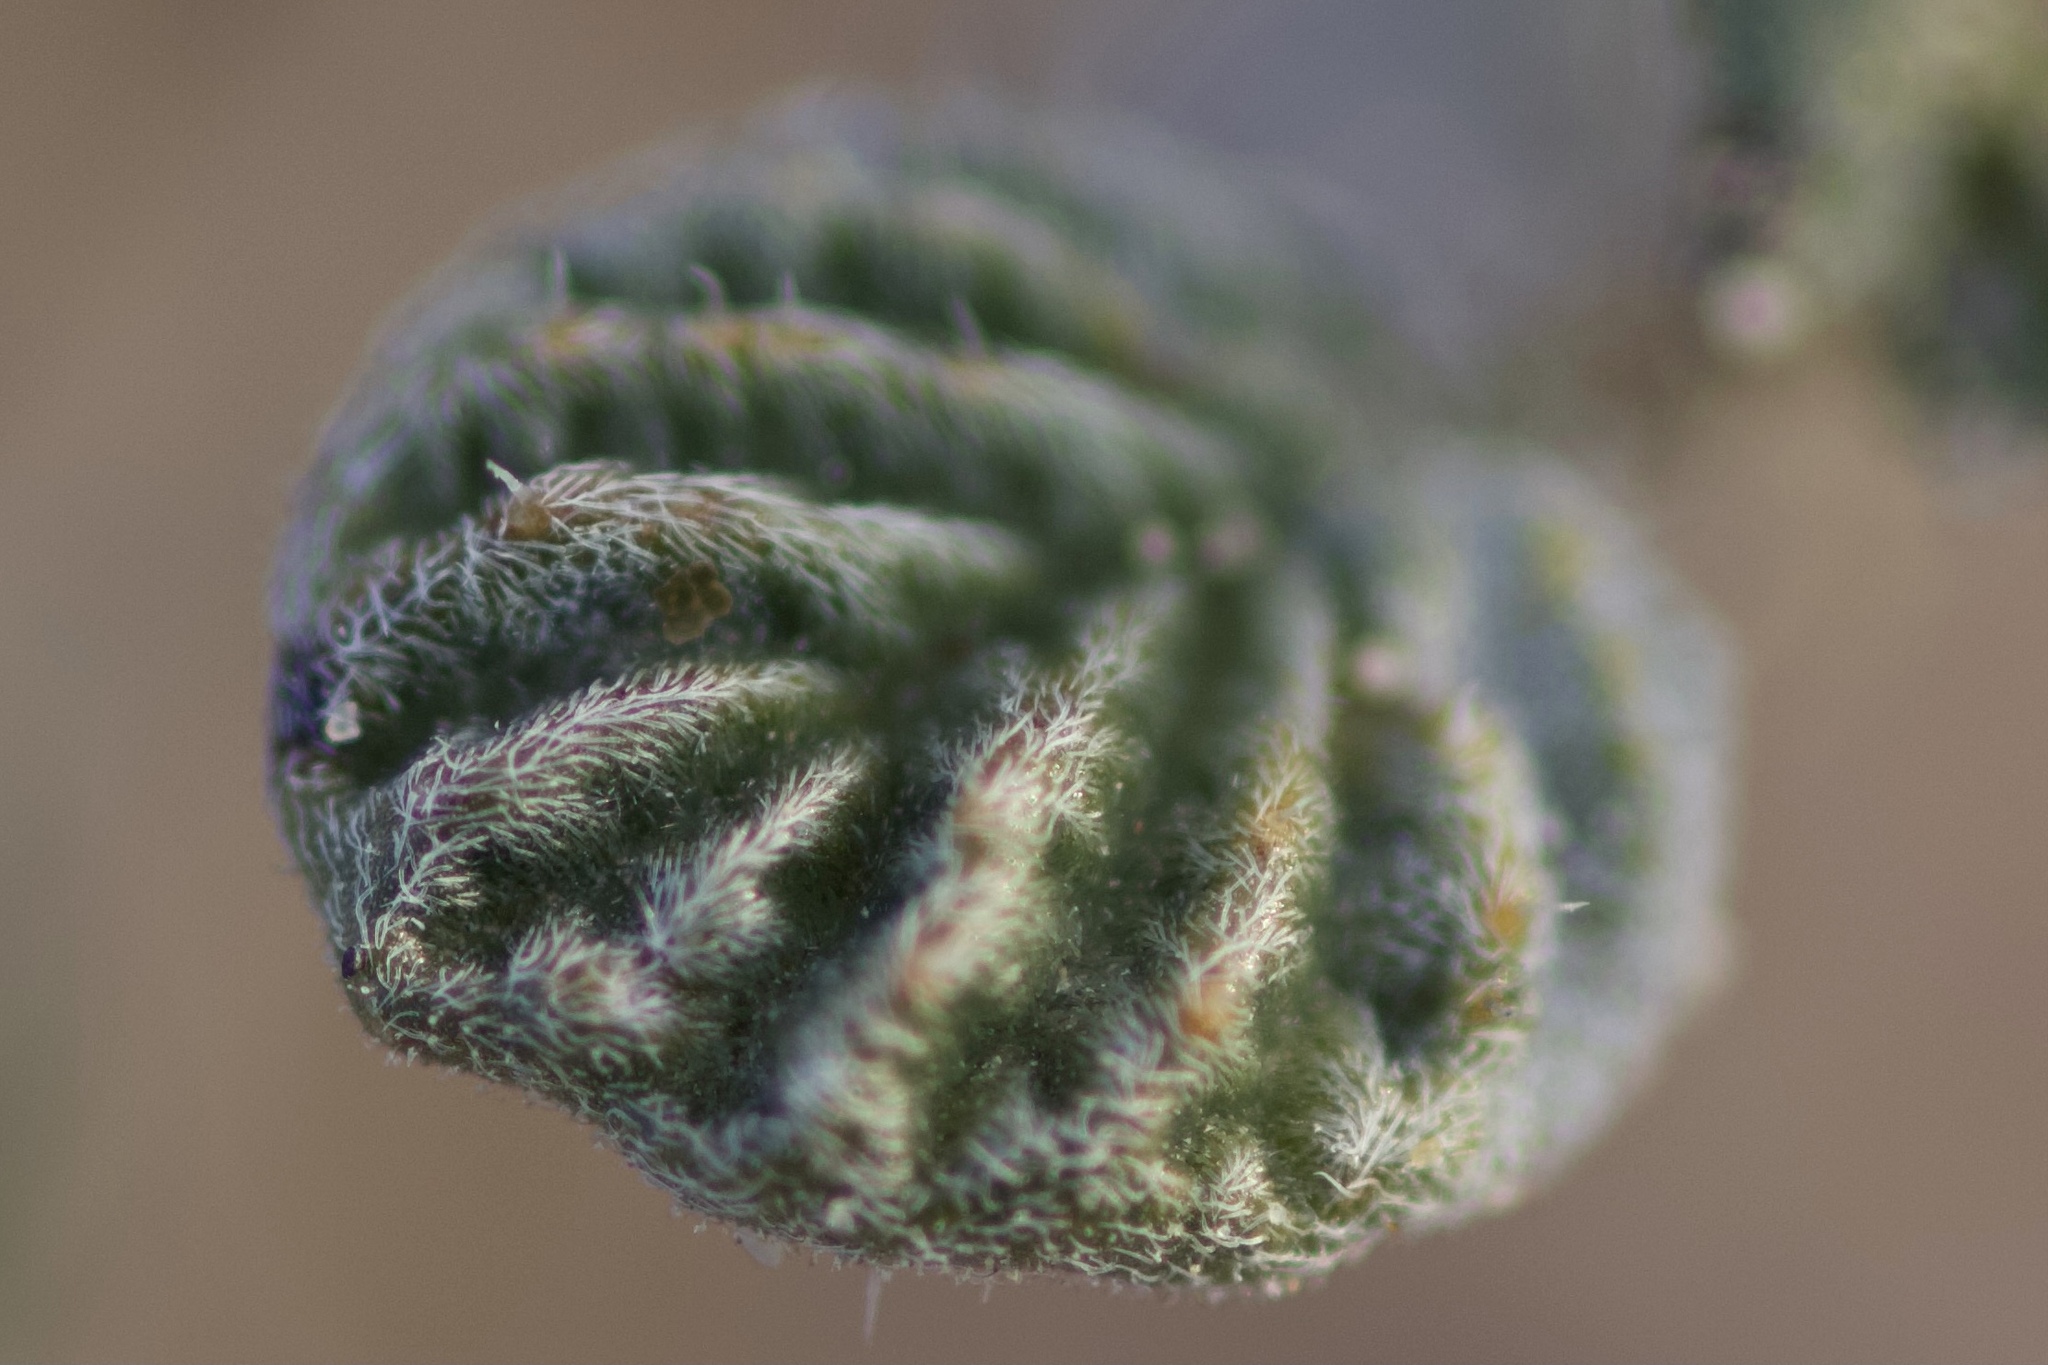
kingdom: Plantae
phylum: Tracheophyta
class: Magnoliopsida
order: Boraginales
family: Ehretiaceae
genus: Tiquilia
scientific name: Tiquilia plicata
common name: Fan-leaf tiquilia
